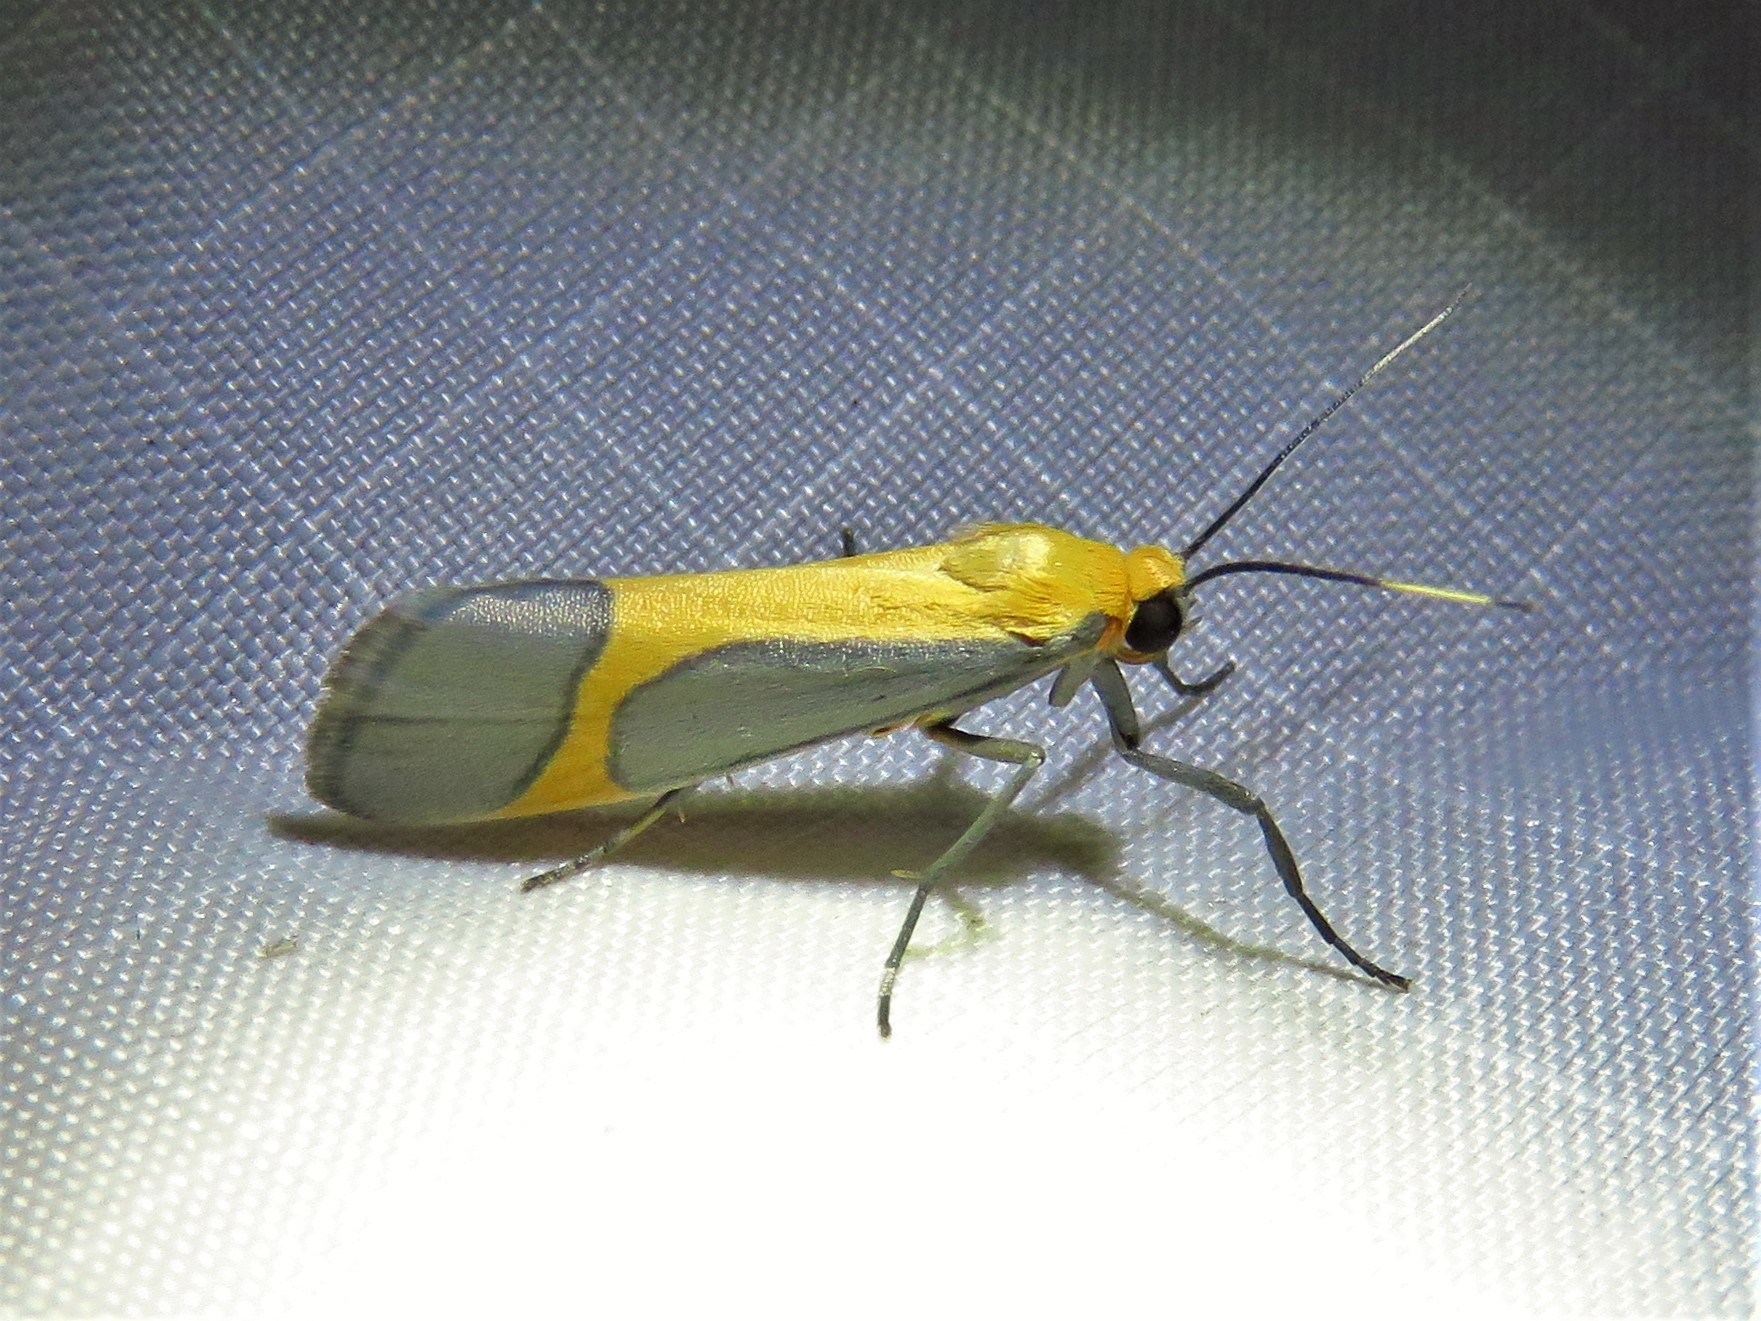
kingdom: Animalia
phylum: Arthropoda
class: Insecta
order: Lepidoptera
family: Erebidae
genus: Cisthene
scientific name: Cisthene angelus
